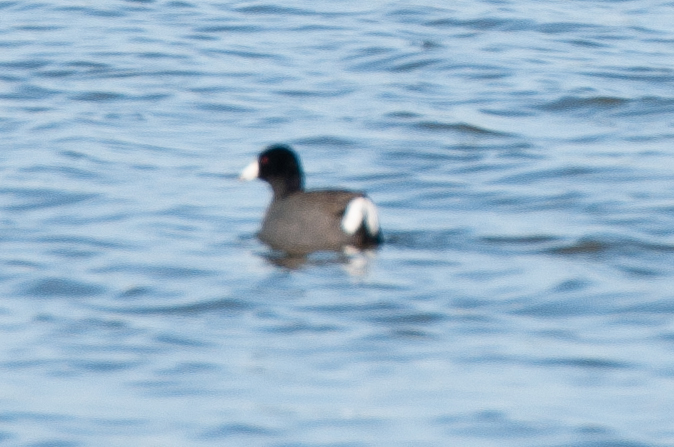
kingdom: Animalia
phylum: Chordata
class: Aves
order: Gruiformes
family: Rallidae
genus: Fulica
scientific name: Fulica americana
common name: American coot
